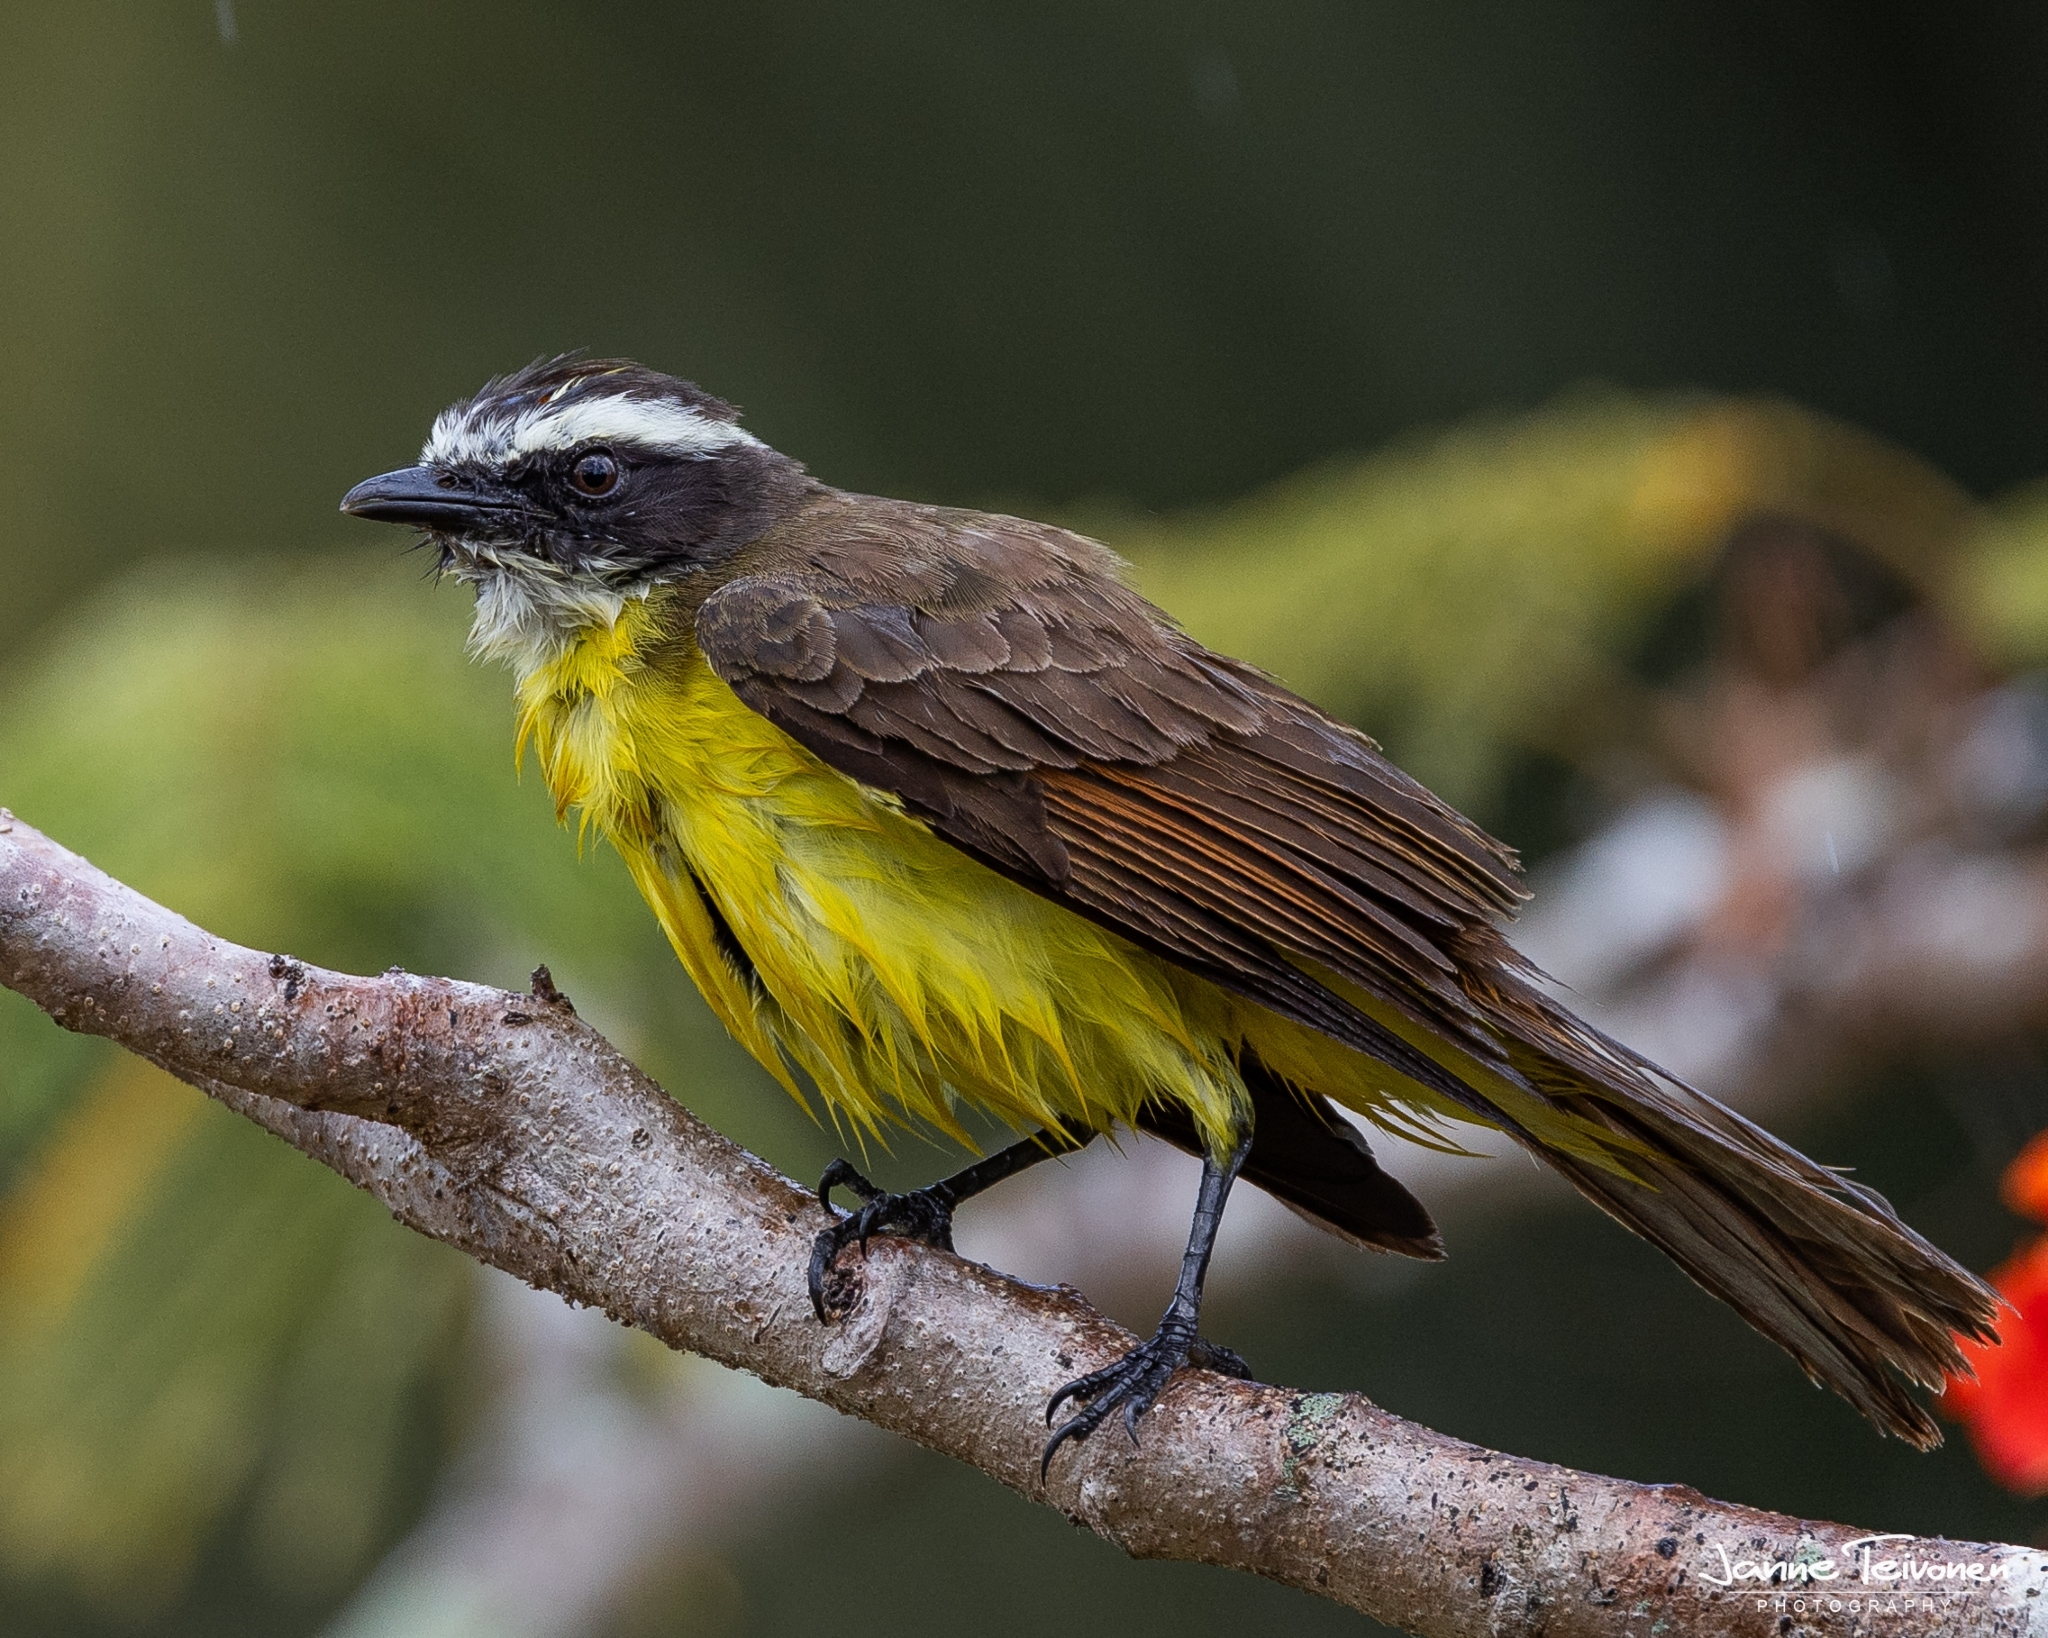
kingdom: Animalia
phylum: Chordata
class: Aves
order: Passeriformes
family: Tyrannidae
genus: Myiozetetes
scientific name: Myiozetetes cayanensis
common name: Rusty-margined flycatcher
